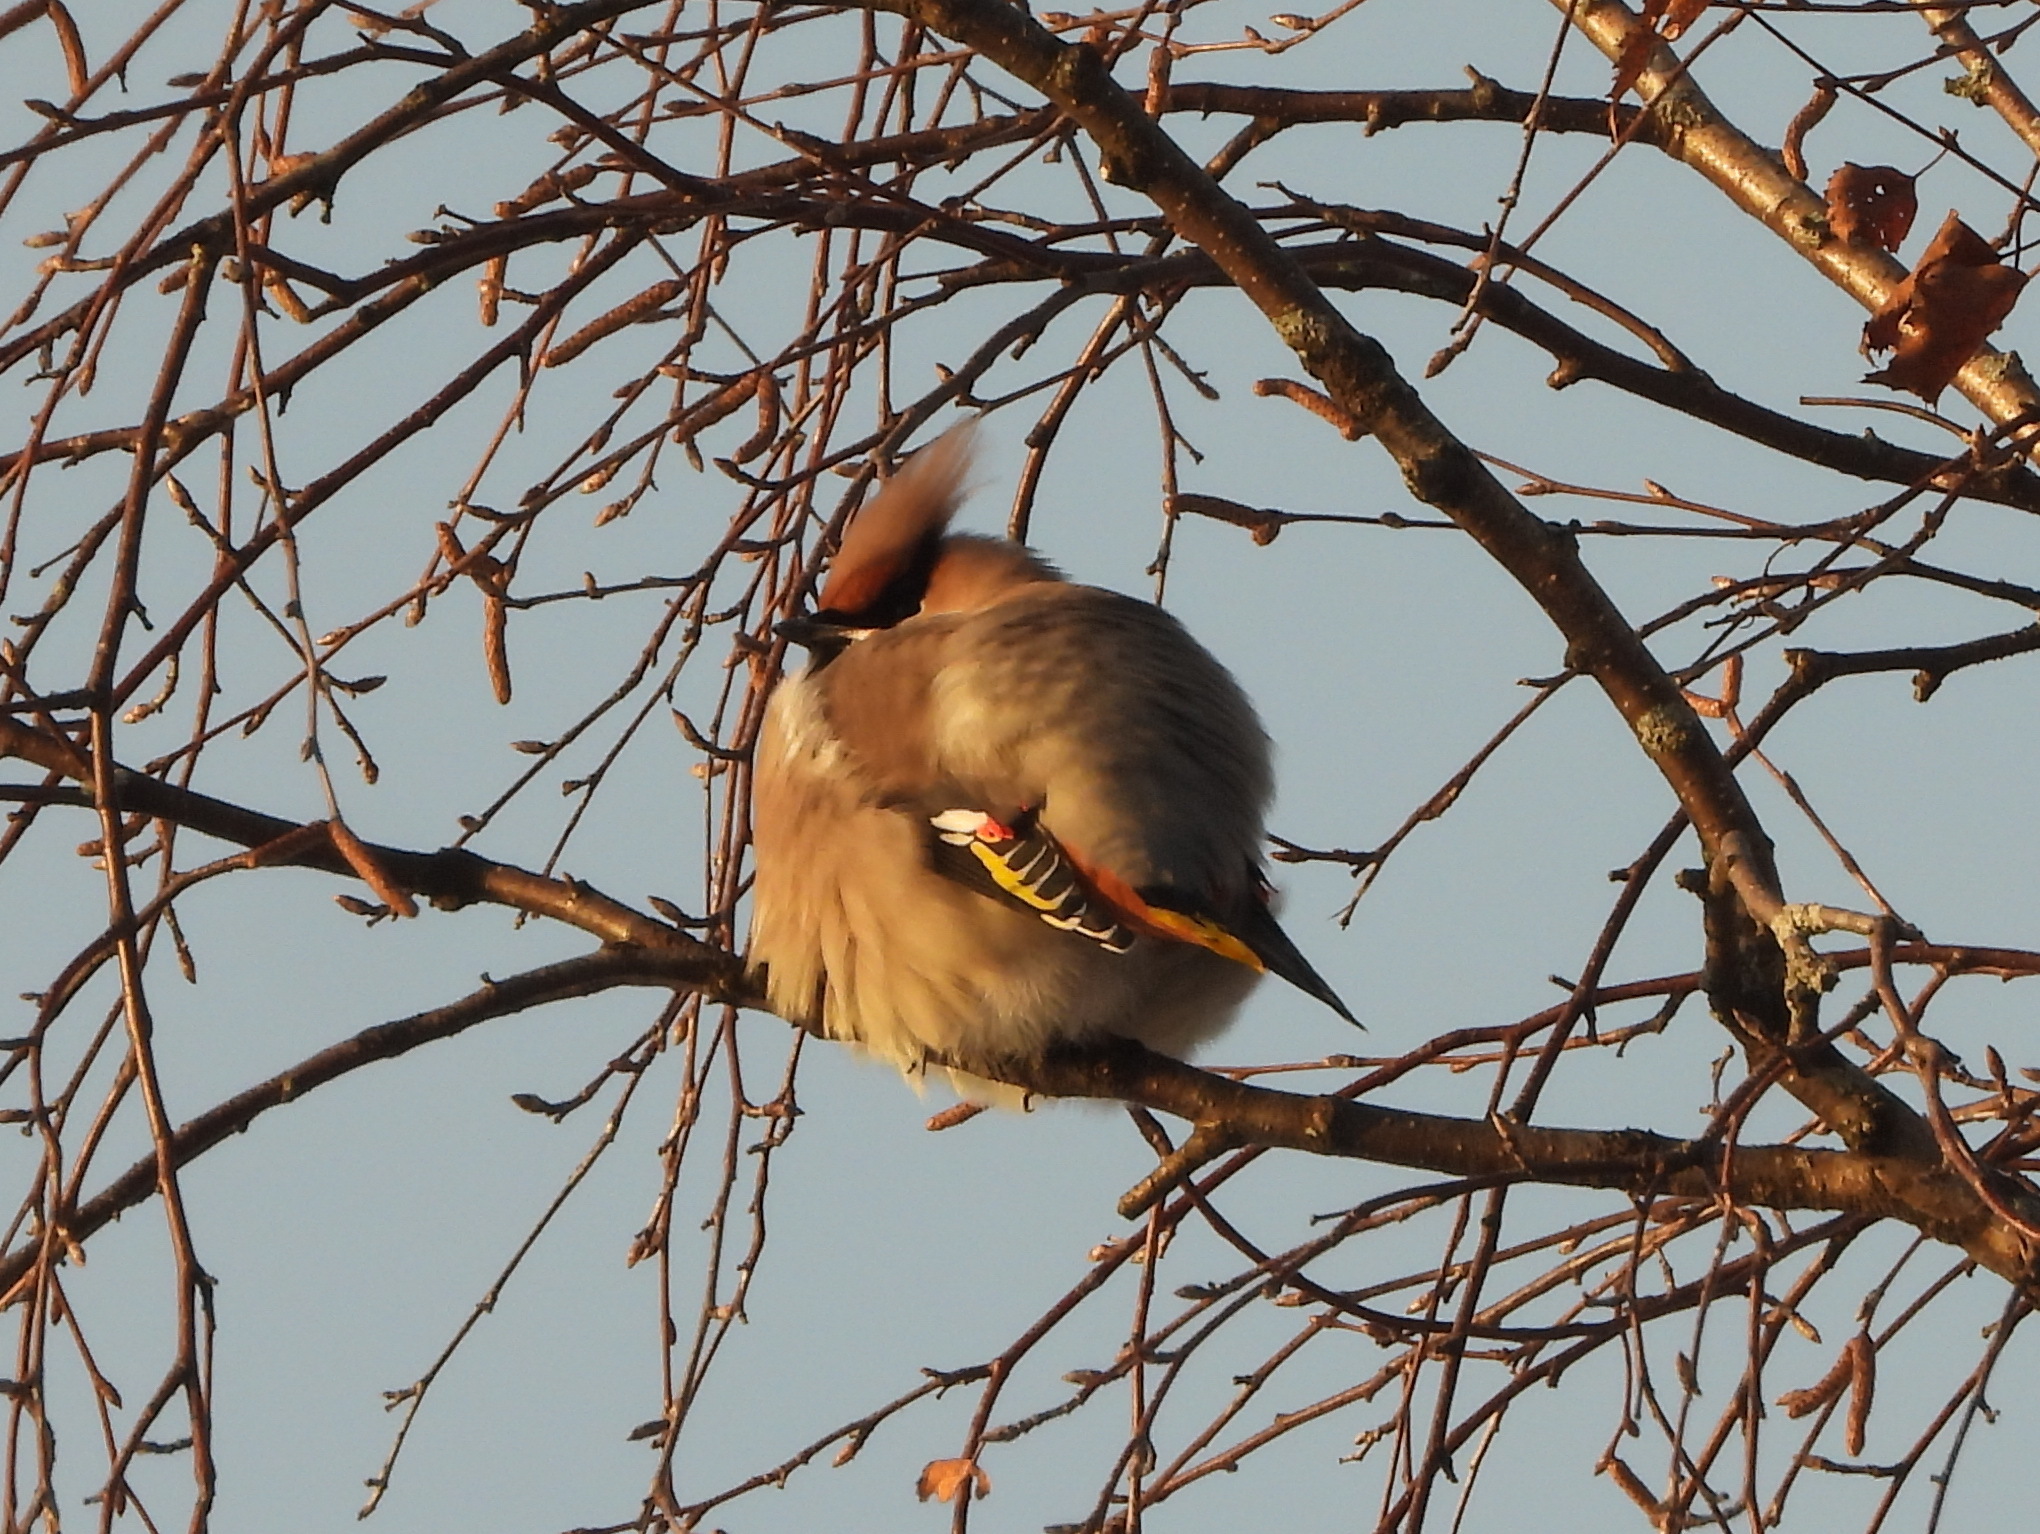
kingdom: Animalia
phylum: Chordata
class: Aves
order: Passeriformes
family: Bombycillidae
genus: Bombycilla
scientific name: Bombycilla garrulus
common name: Bohemian waxwing
